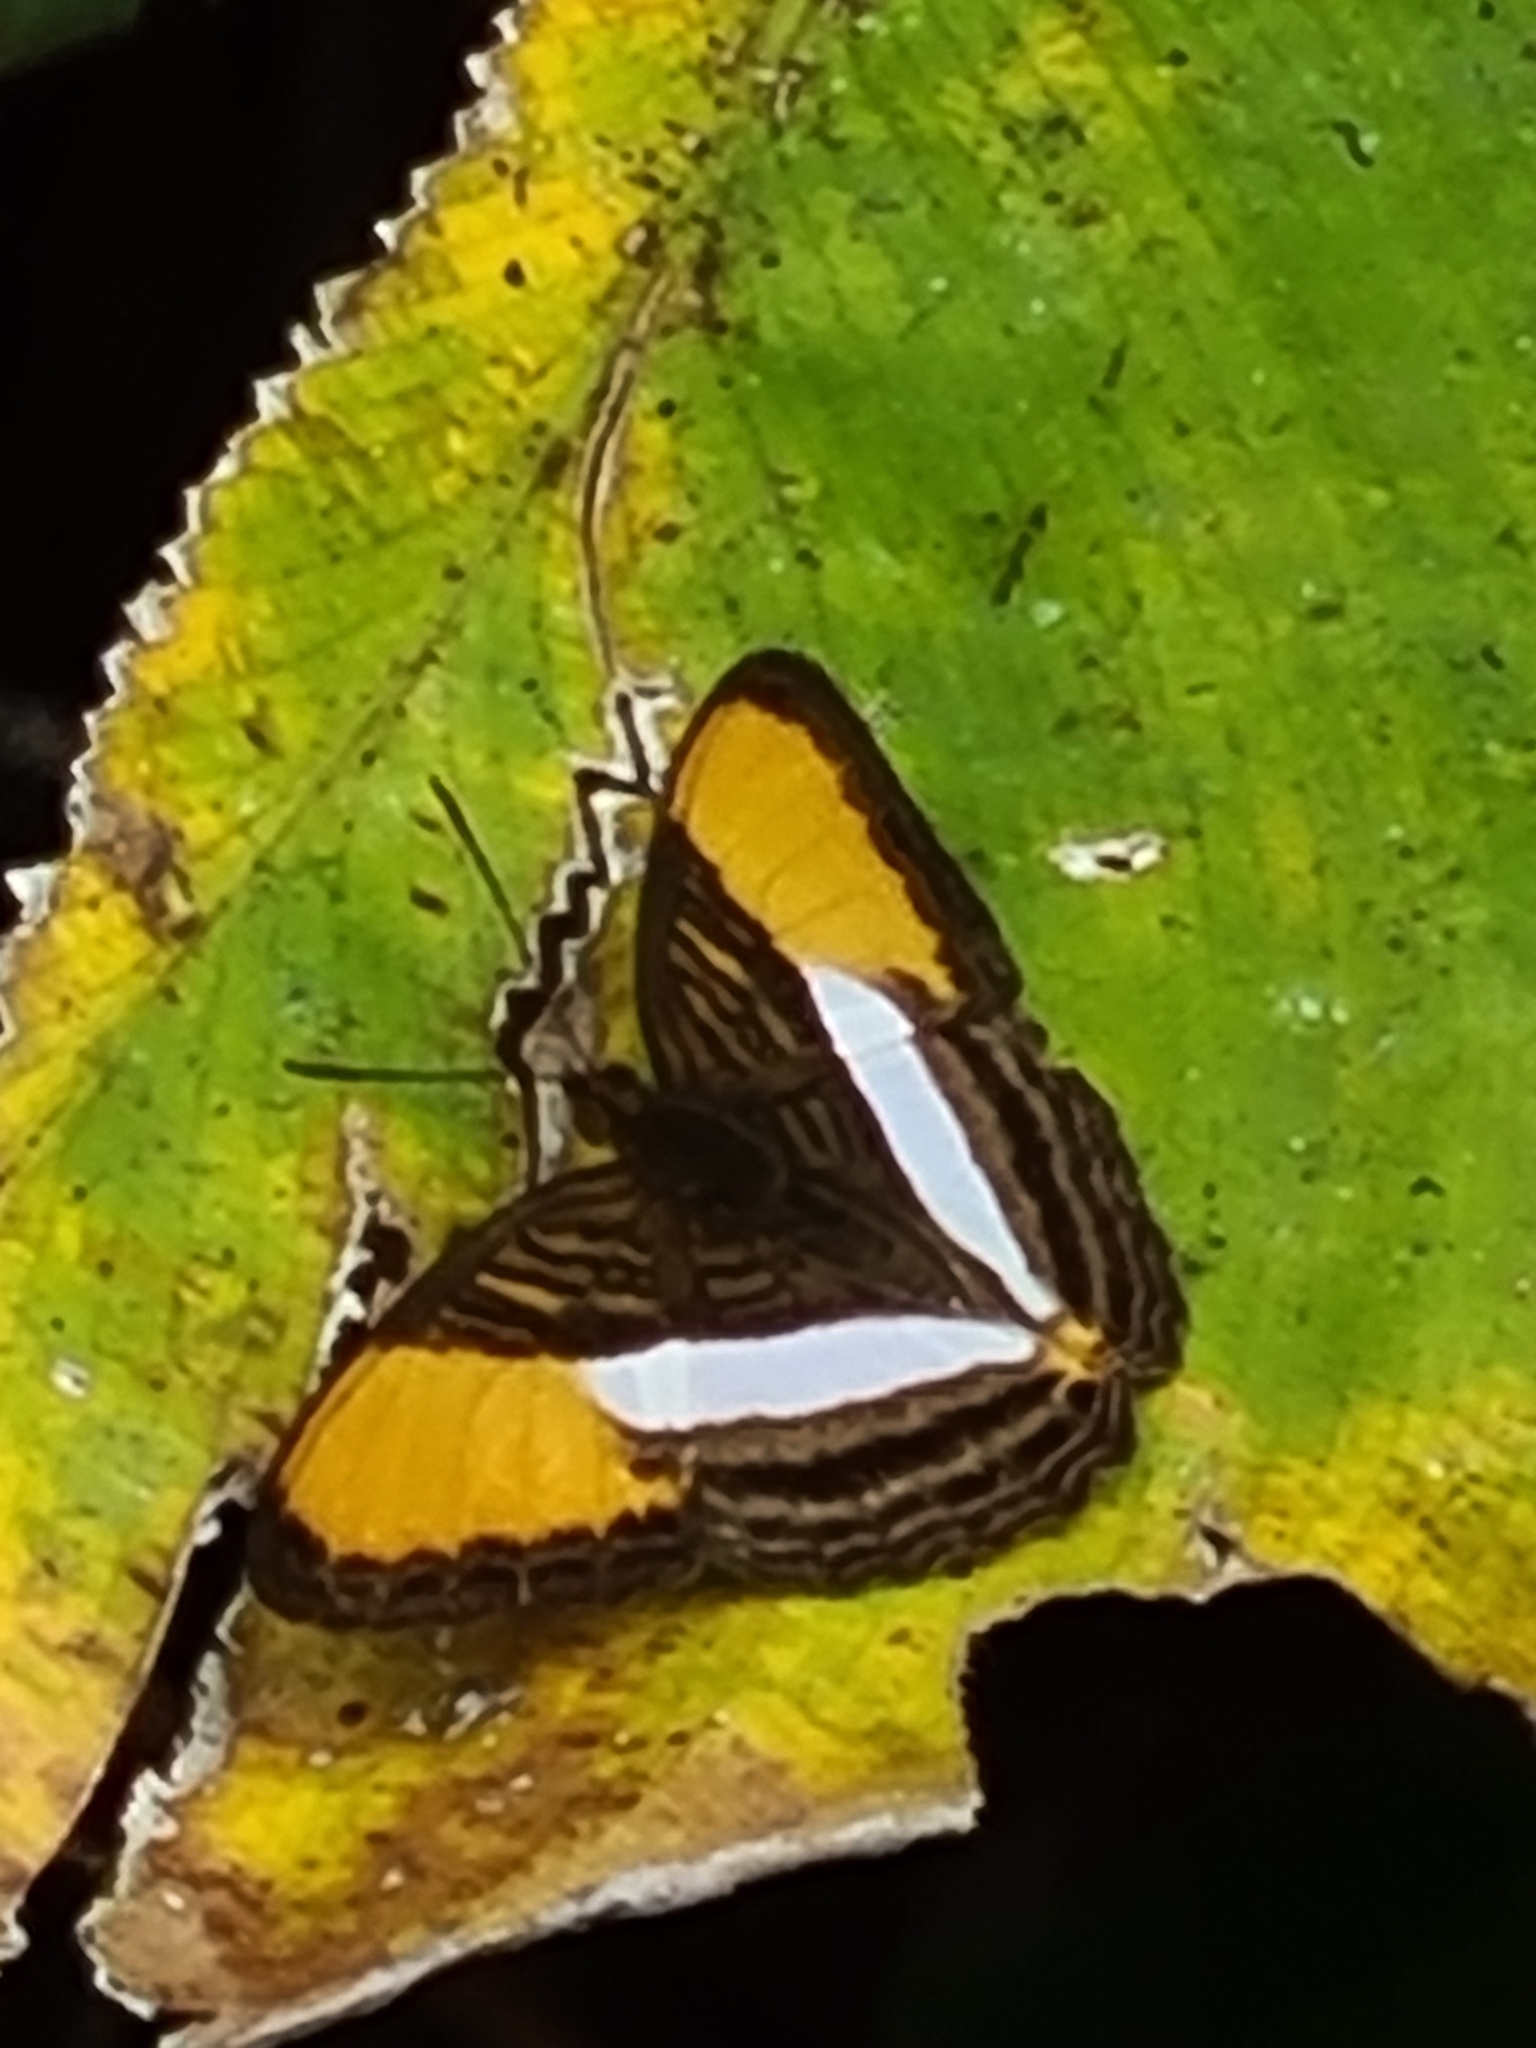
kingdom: Animalia
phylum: Arthropoda
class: Insecta
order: Lepidoptera
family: Nymphalidae
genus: Limenitis
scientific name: Limenitis cytherea
